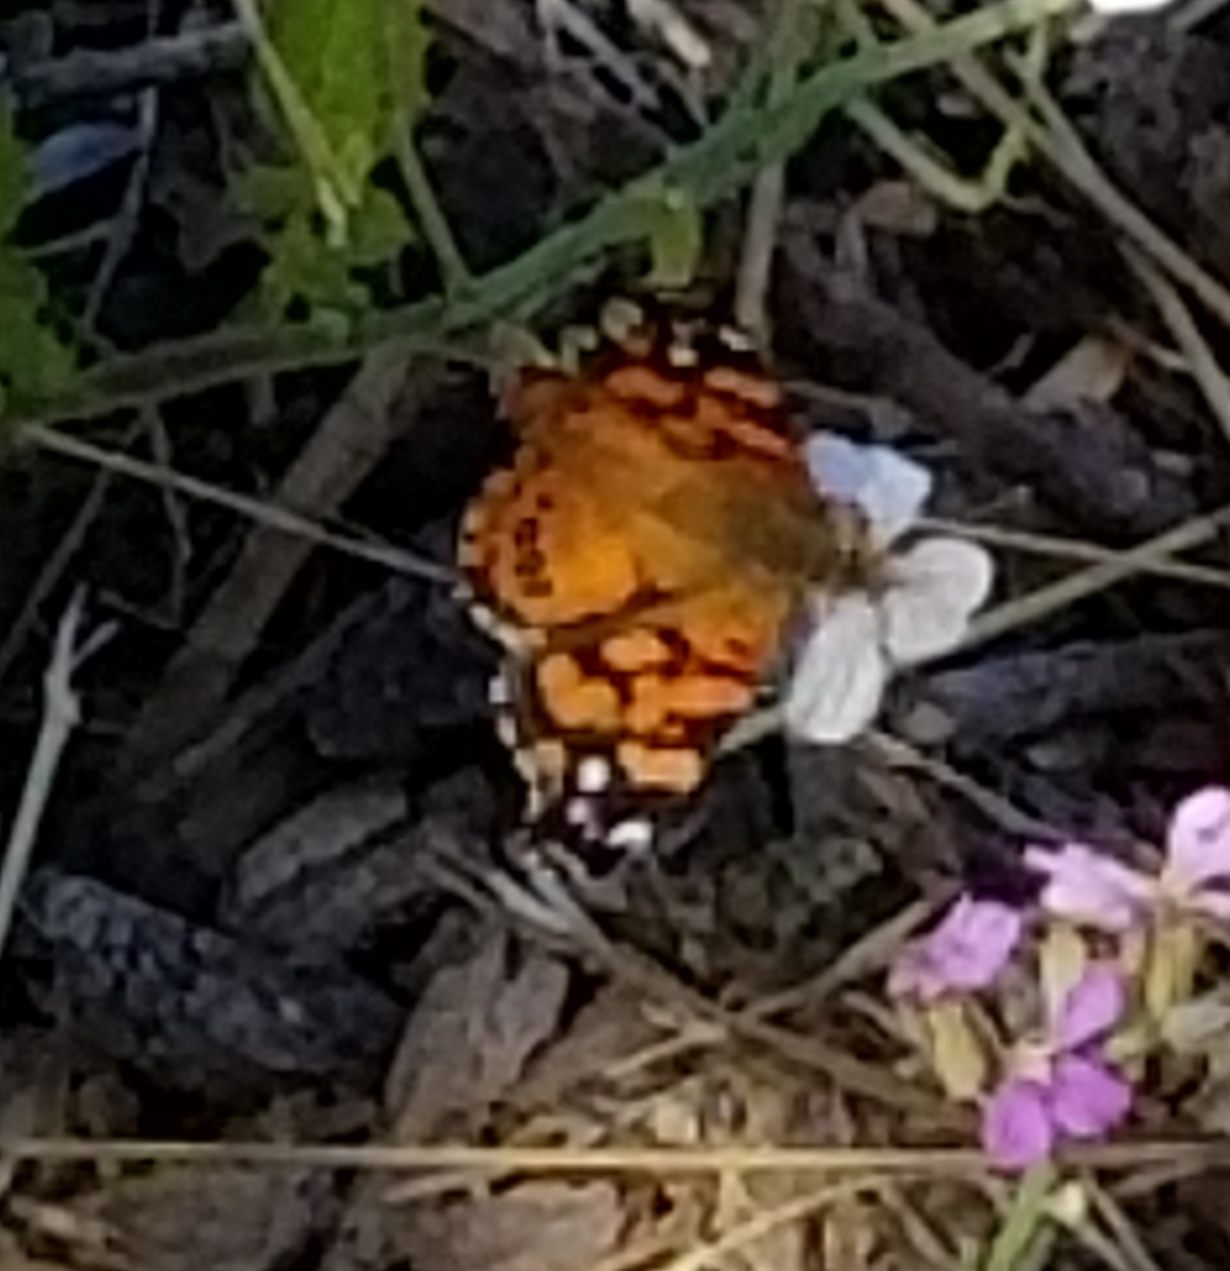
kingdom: Animalia
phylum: Arthropoda
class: Insecta
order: Lepidoptera
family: Nymphalidae
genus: Vanessa
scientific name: Vanessa annabella
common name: West coast lady
